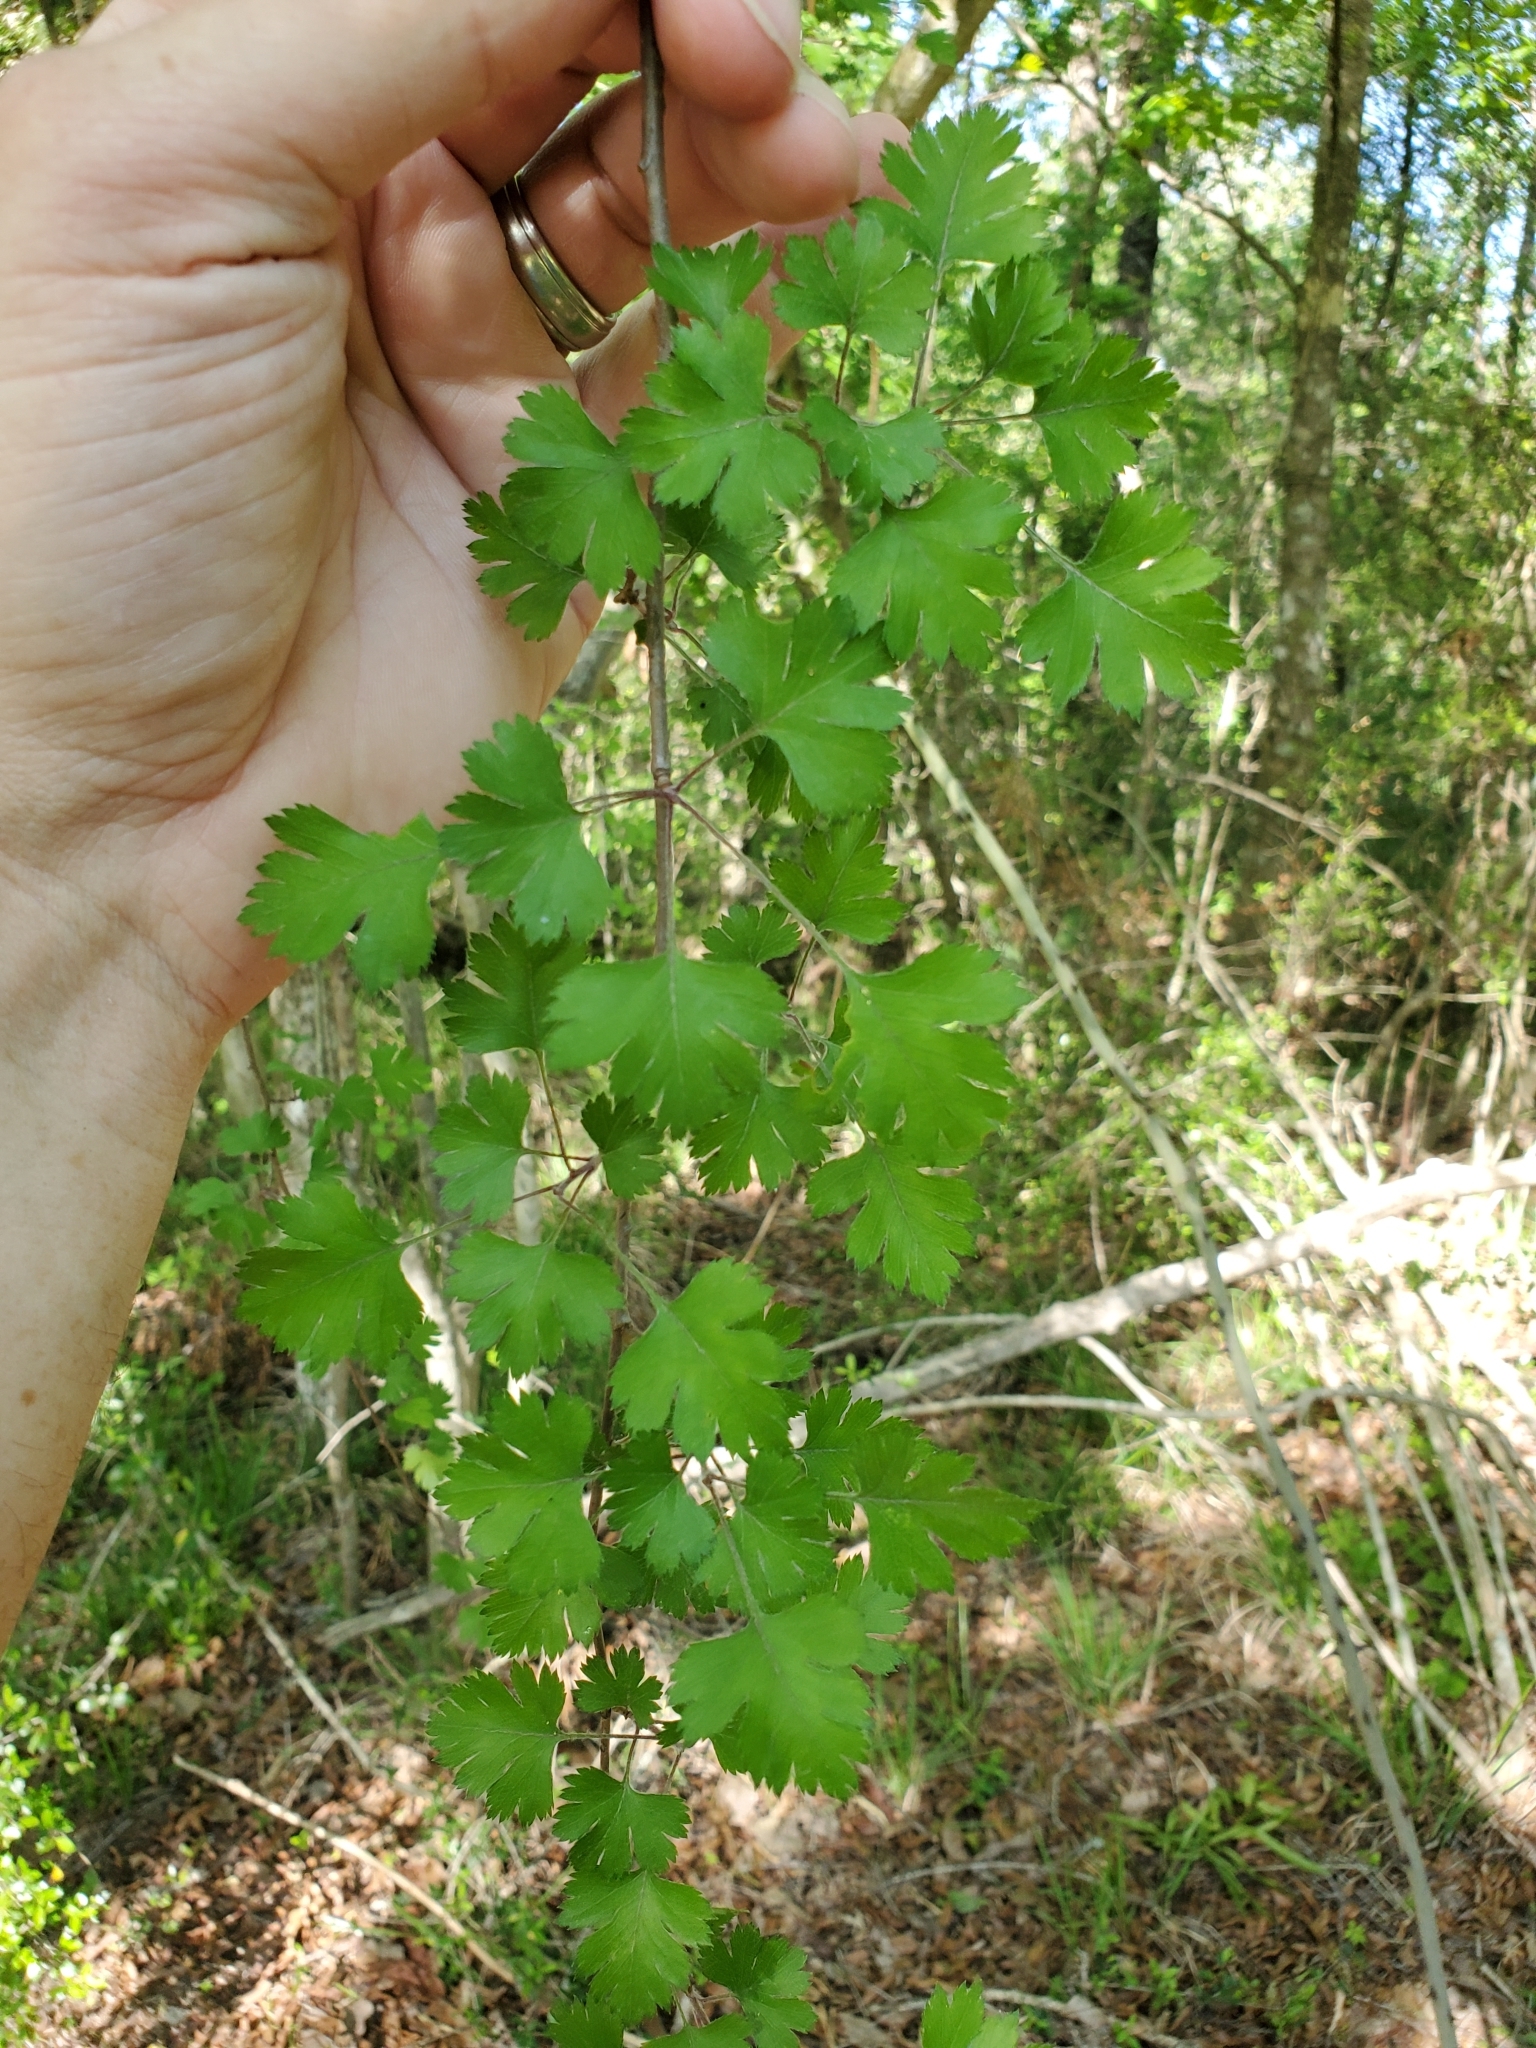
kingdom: Plantae
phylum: Tracheophyta
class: Magnoliopsida
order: Rosales
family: Rosaceae
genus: Crataegus
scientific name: Crataegus marshallii
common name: Parsley-hawthorn
